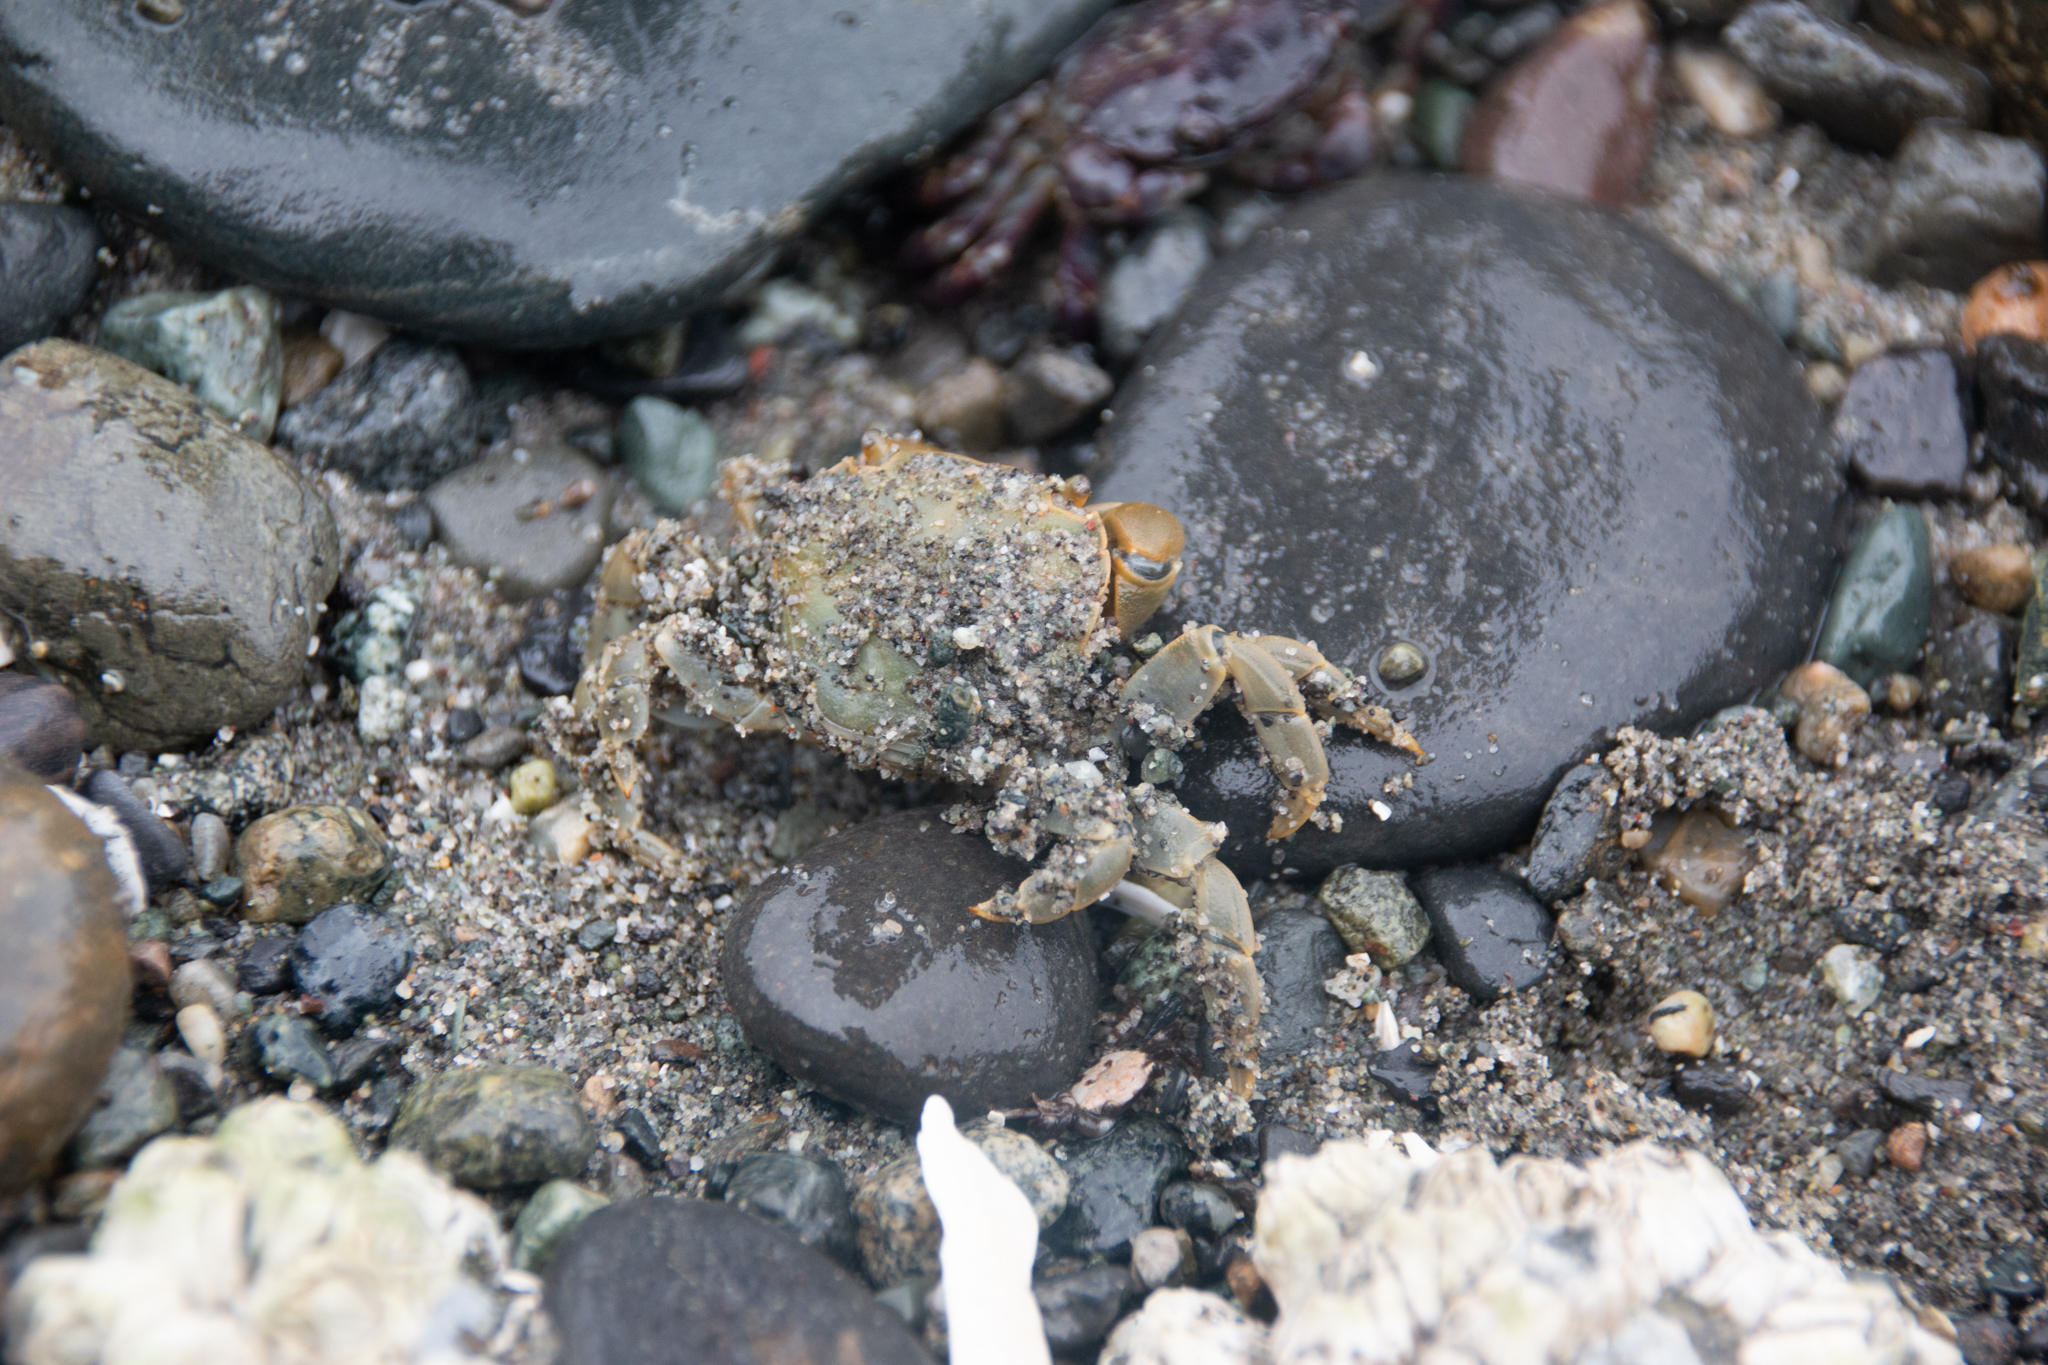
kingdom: Animalia
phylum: Arthropoda
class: Malacostraca
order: Decapoda
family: Varunidae
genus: Hemigrapsus
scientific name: Hemigrapsus nudus
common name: Purple shore crab
